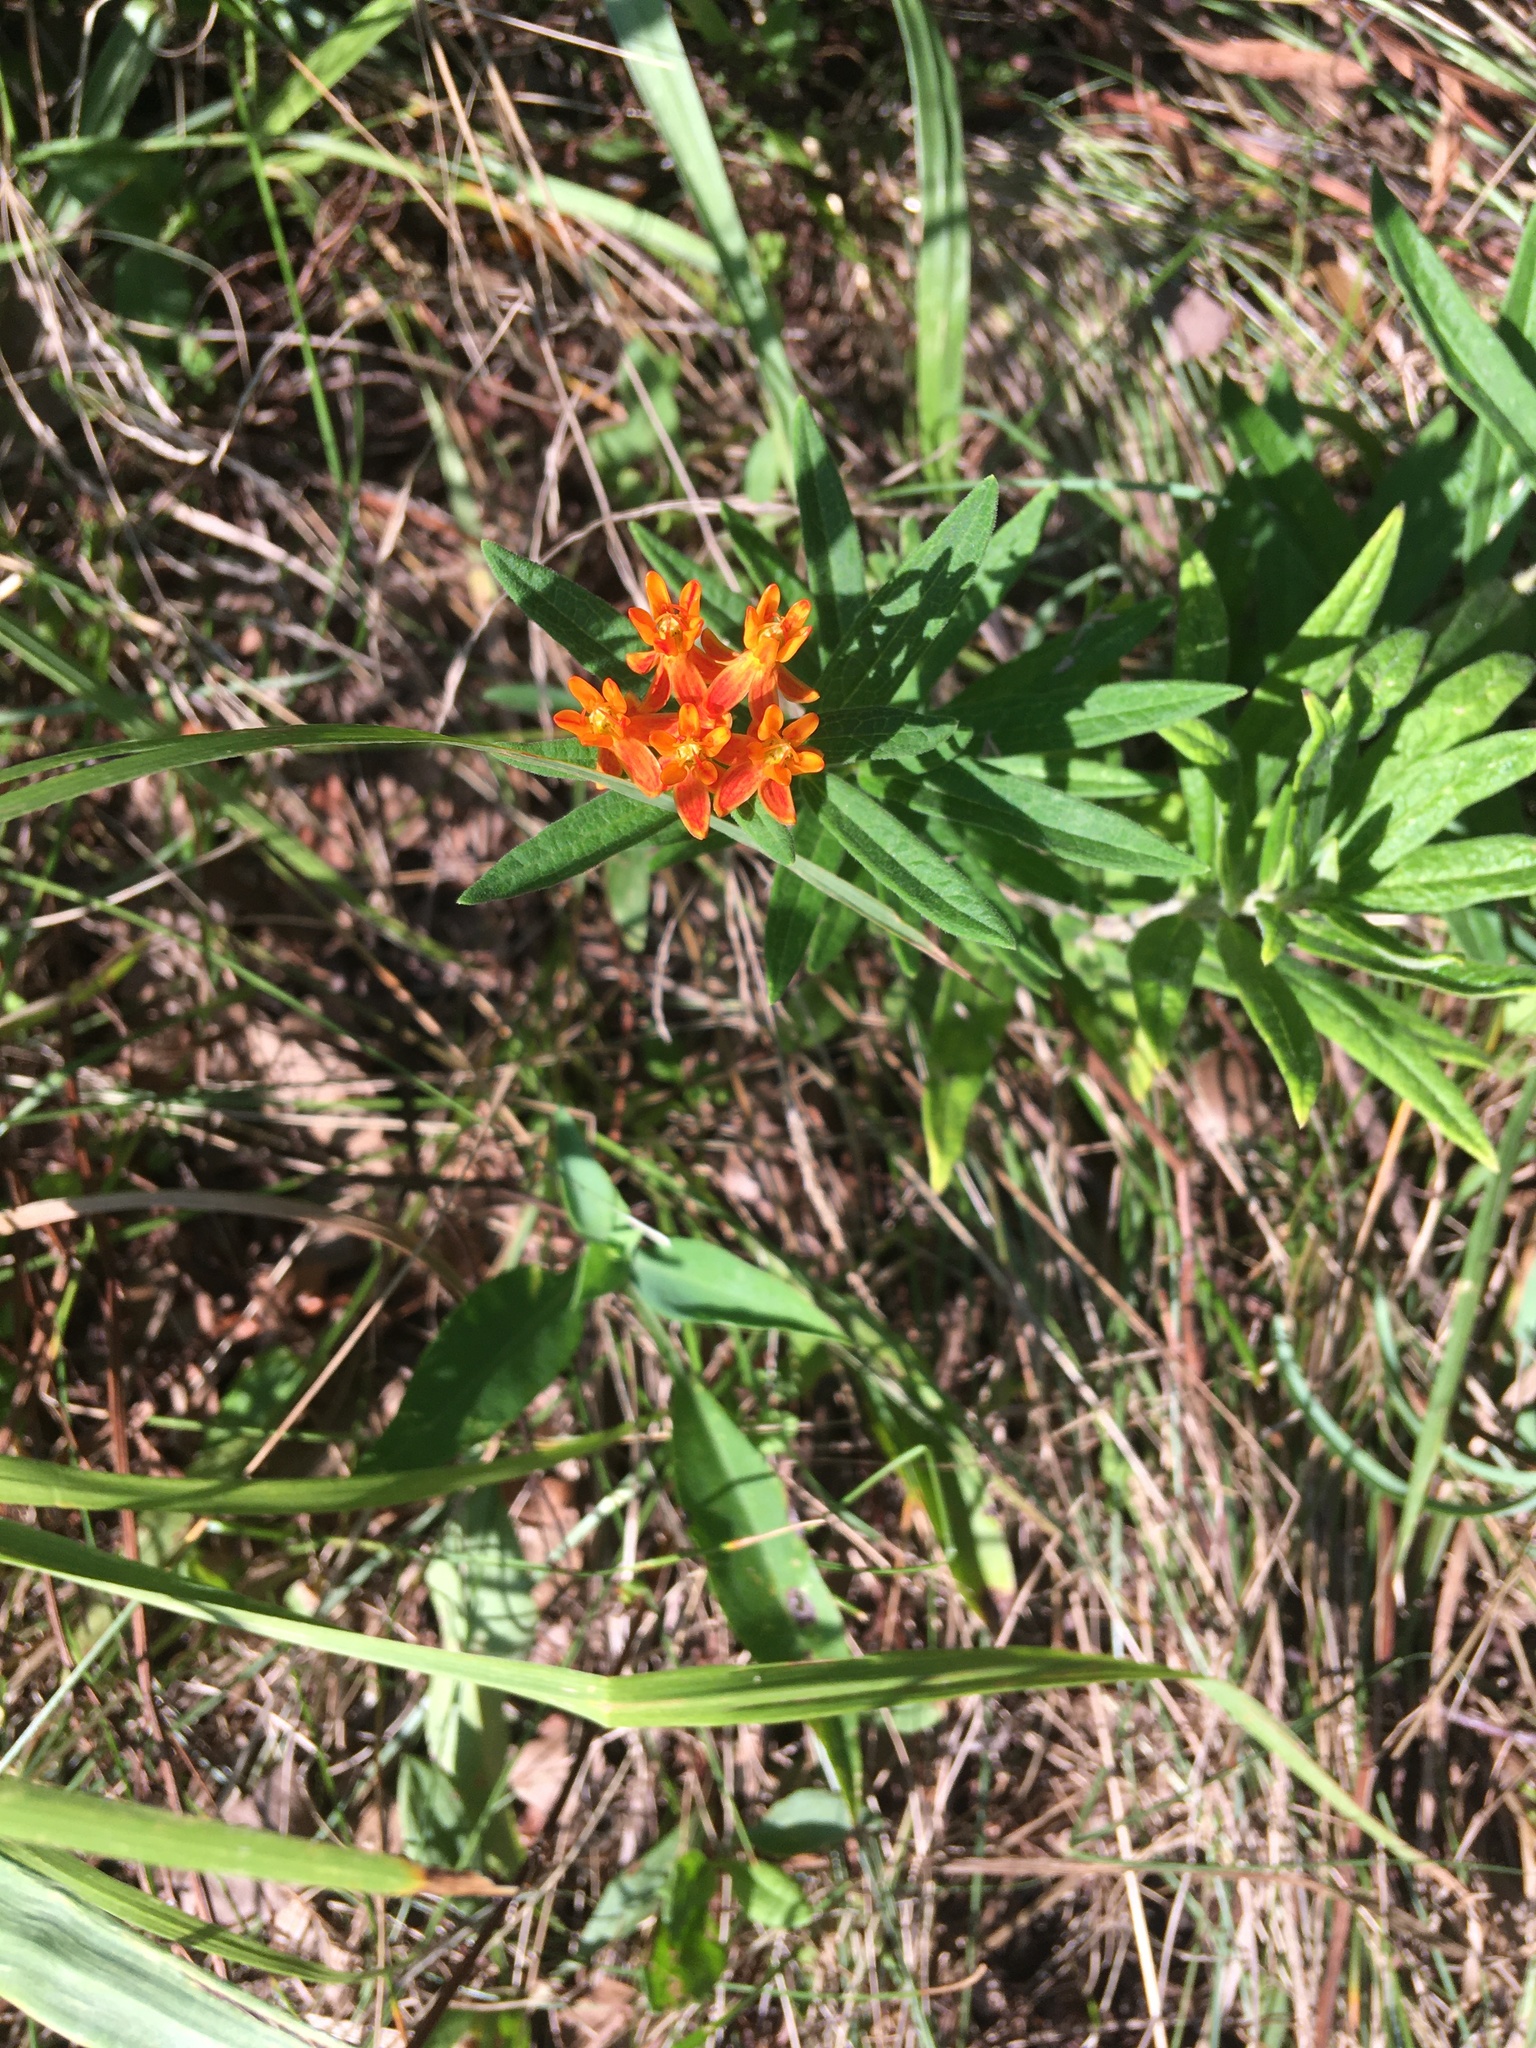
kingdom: Plantae
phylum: Tracheophyta
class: Magnoliopsida
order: Gentianales
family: Apocynaceae
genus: Asclepias
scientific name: Asclepias tuberosa
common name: Butterfly milkweed
